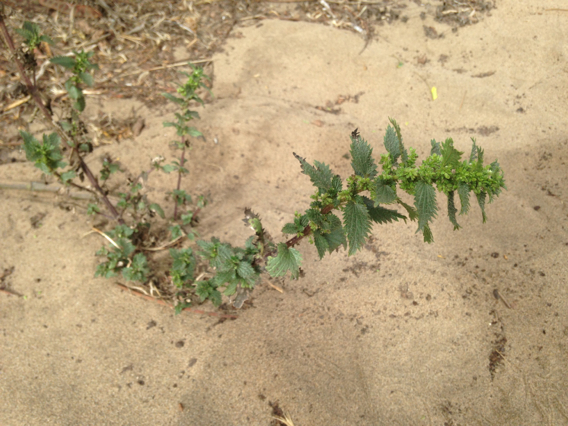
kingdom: Plantae
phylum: Tracheophyta
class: Magnoliopsida
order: Rosales
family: Urticaceae
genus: Urtica
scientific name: Urtica urens
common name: Dwarf nettle
